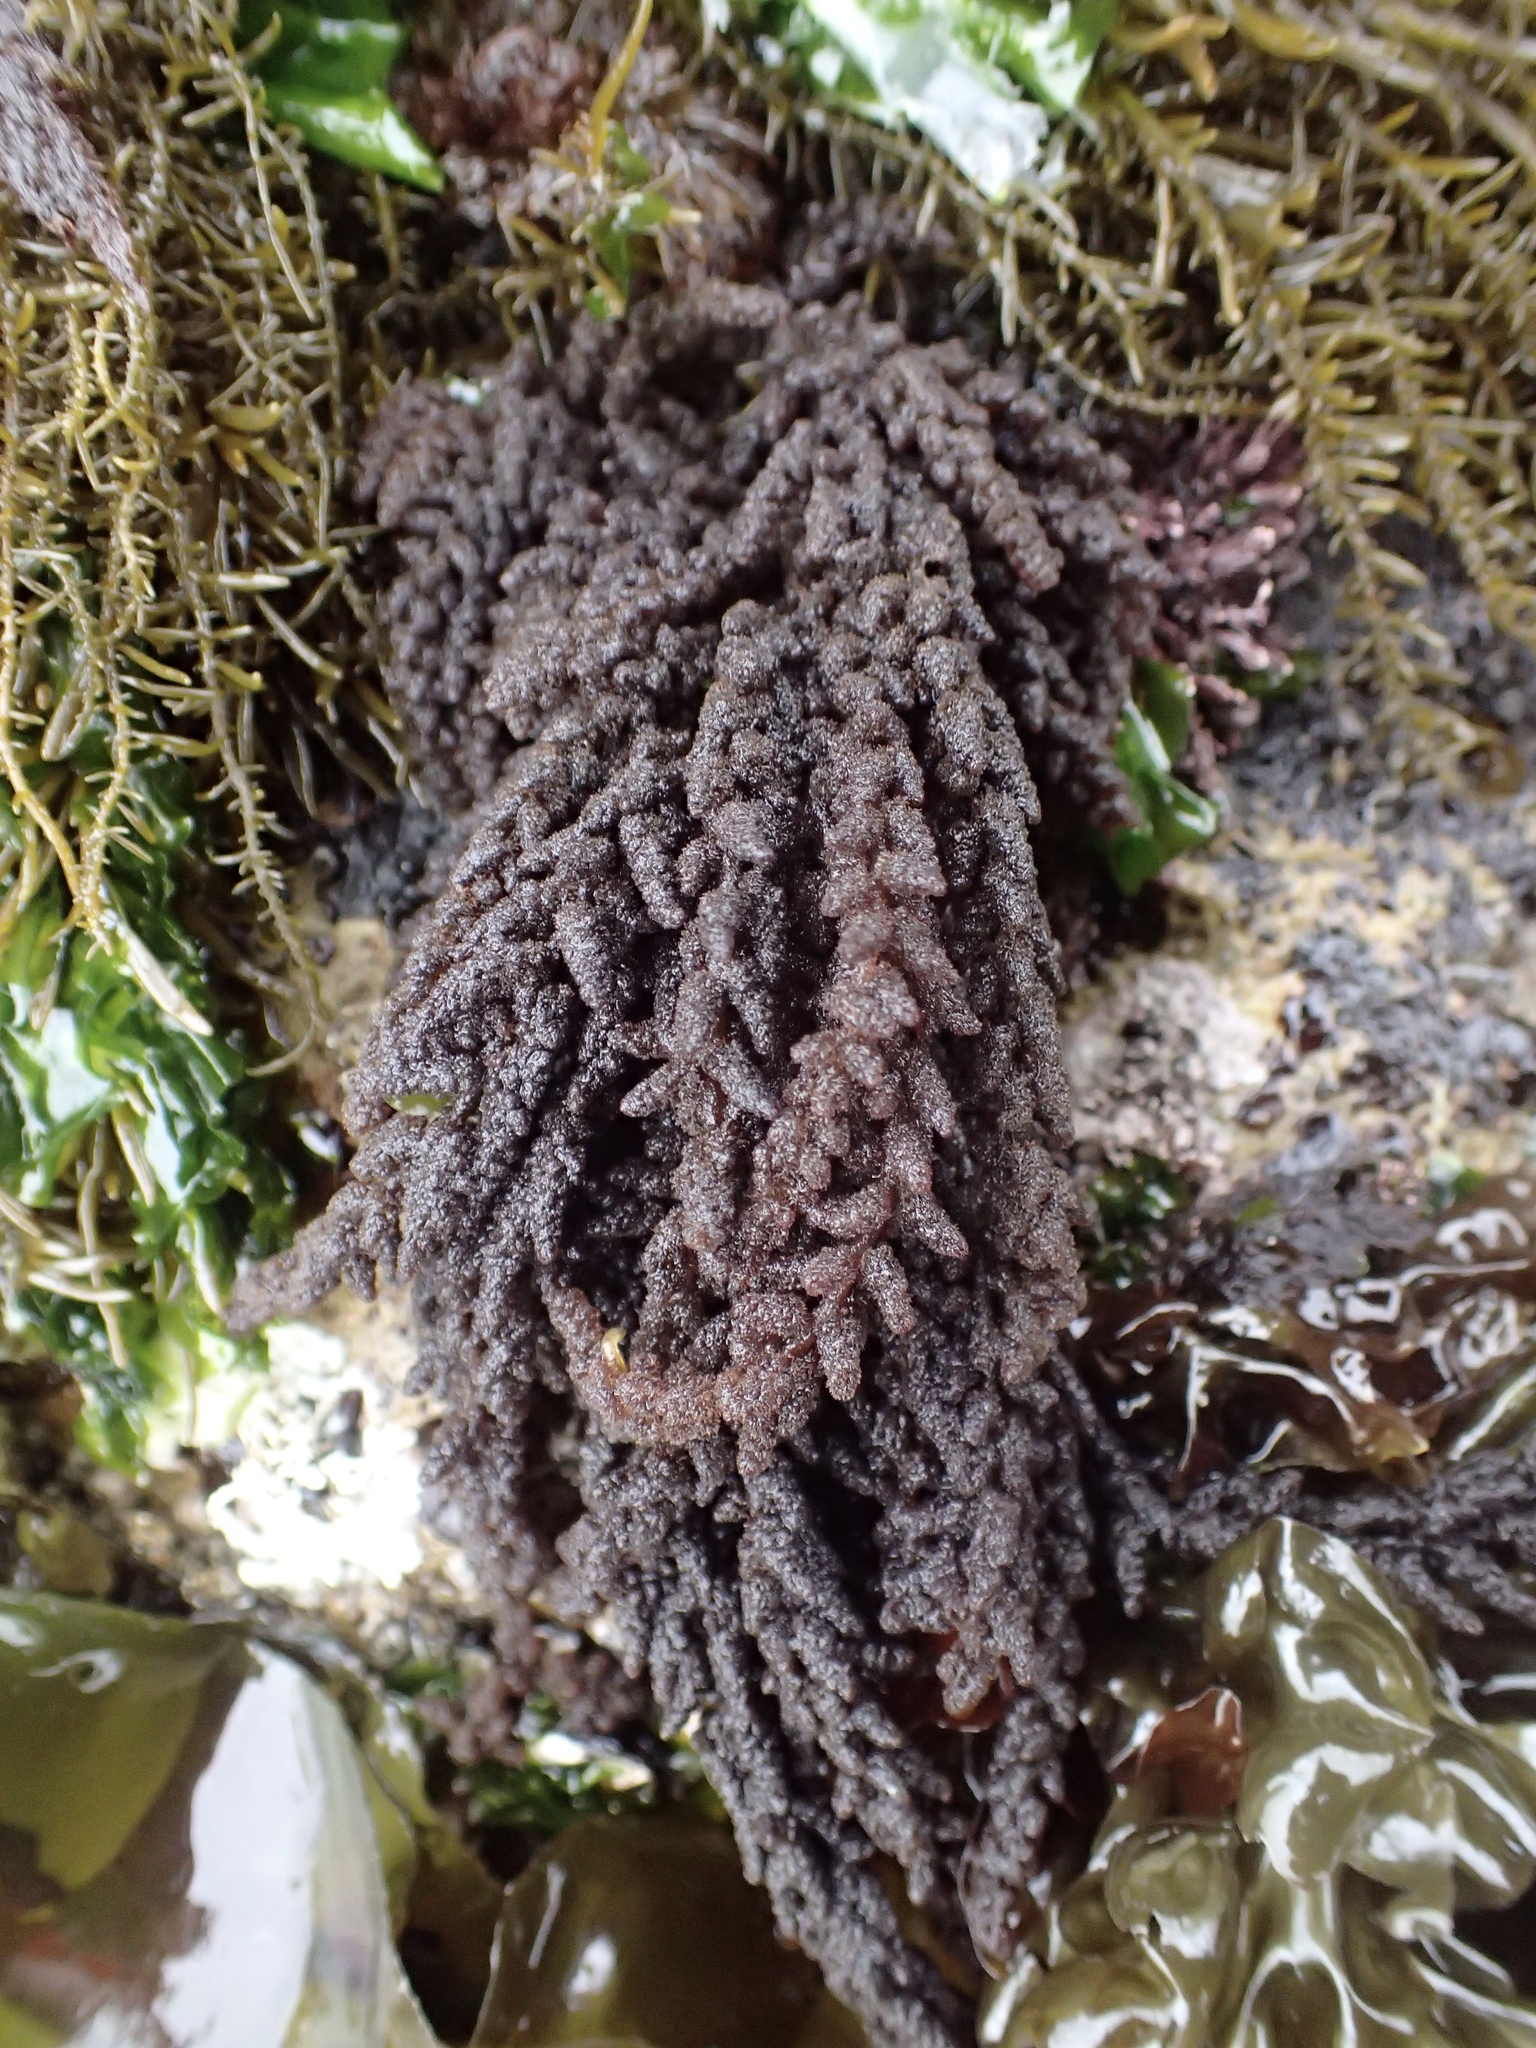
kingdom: Plantae
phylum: Rhodophyta
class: Florideophyceae
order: Ceramiales
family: Callithamniaceae
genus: Callithamnion
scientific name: Callithamnion pikeanum
